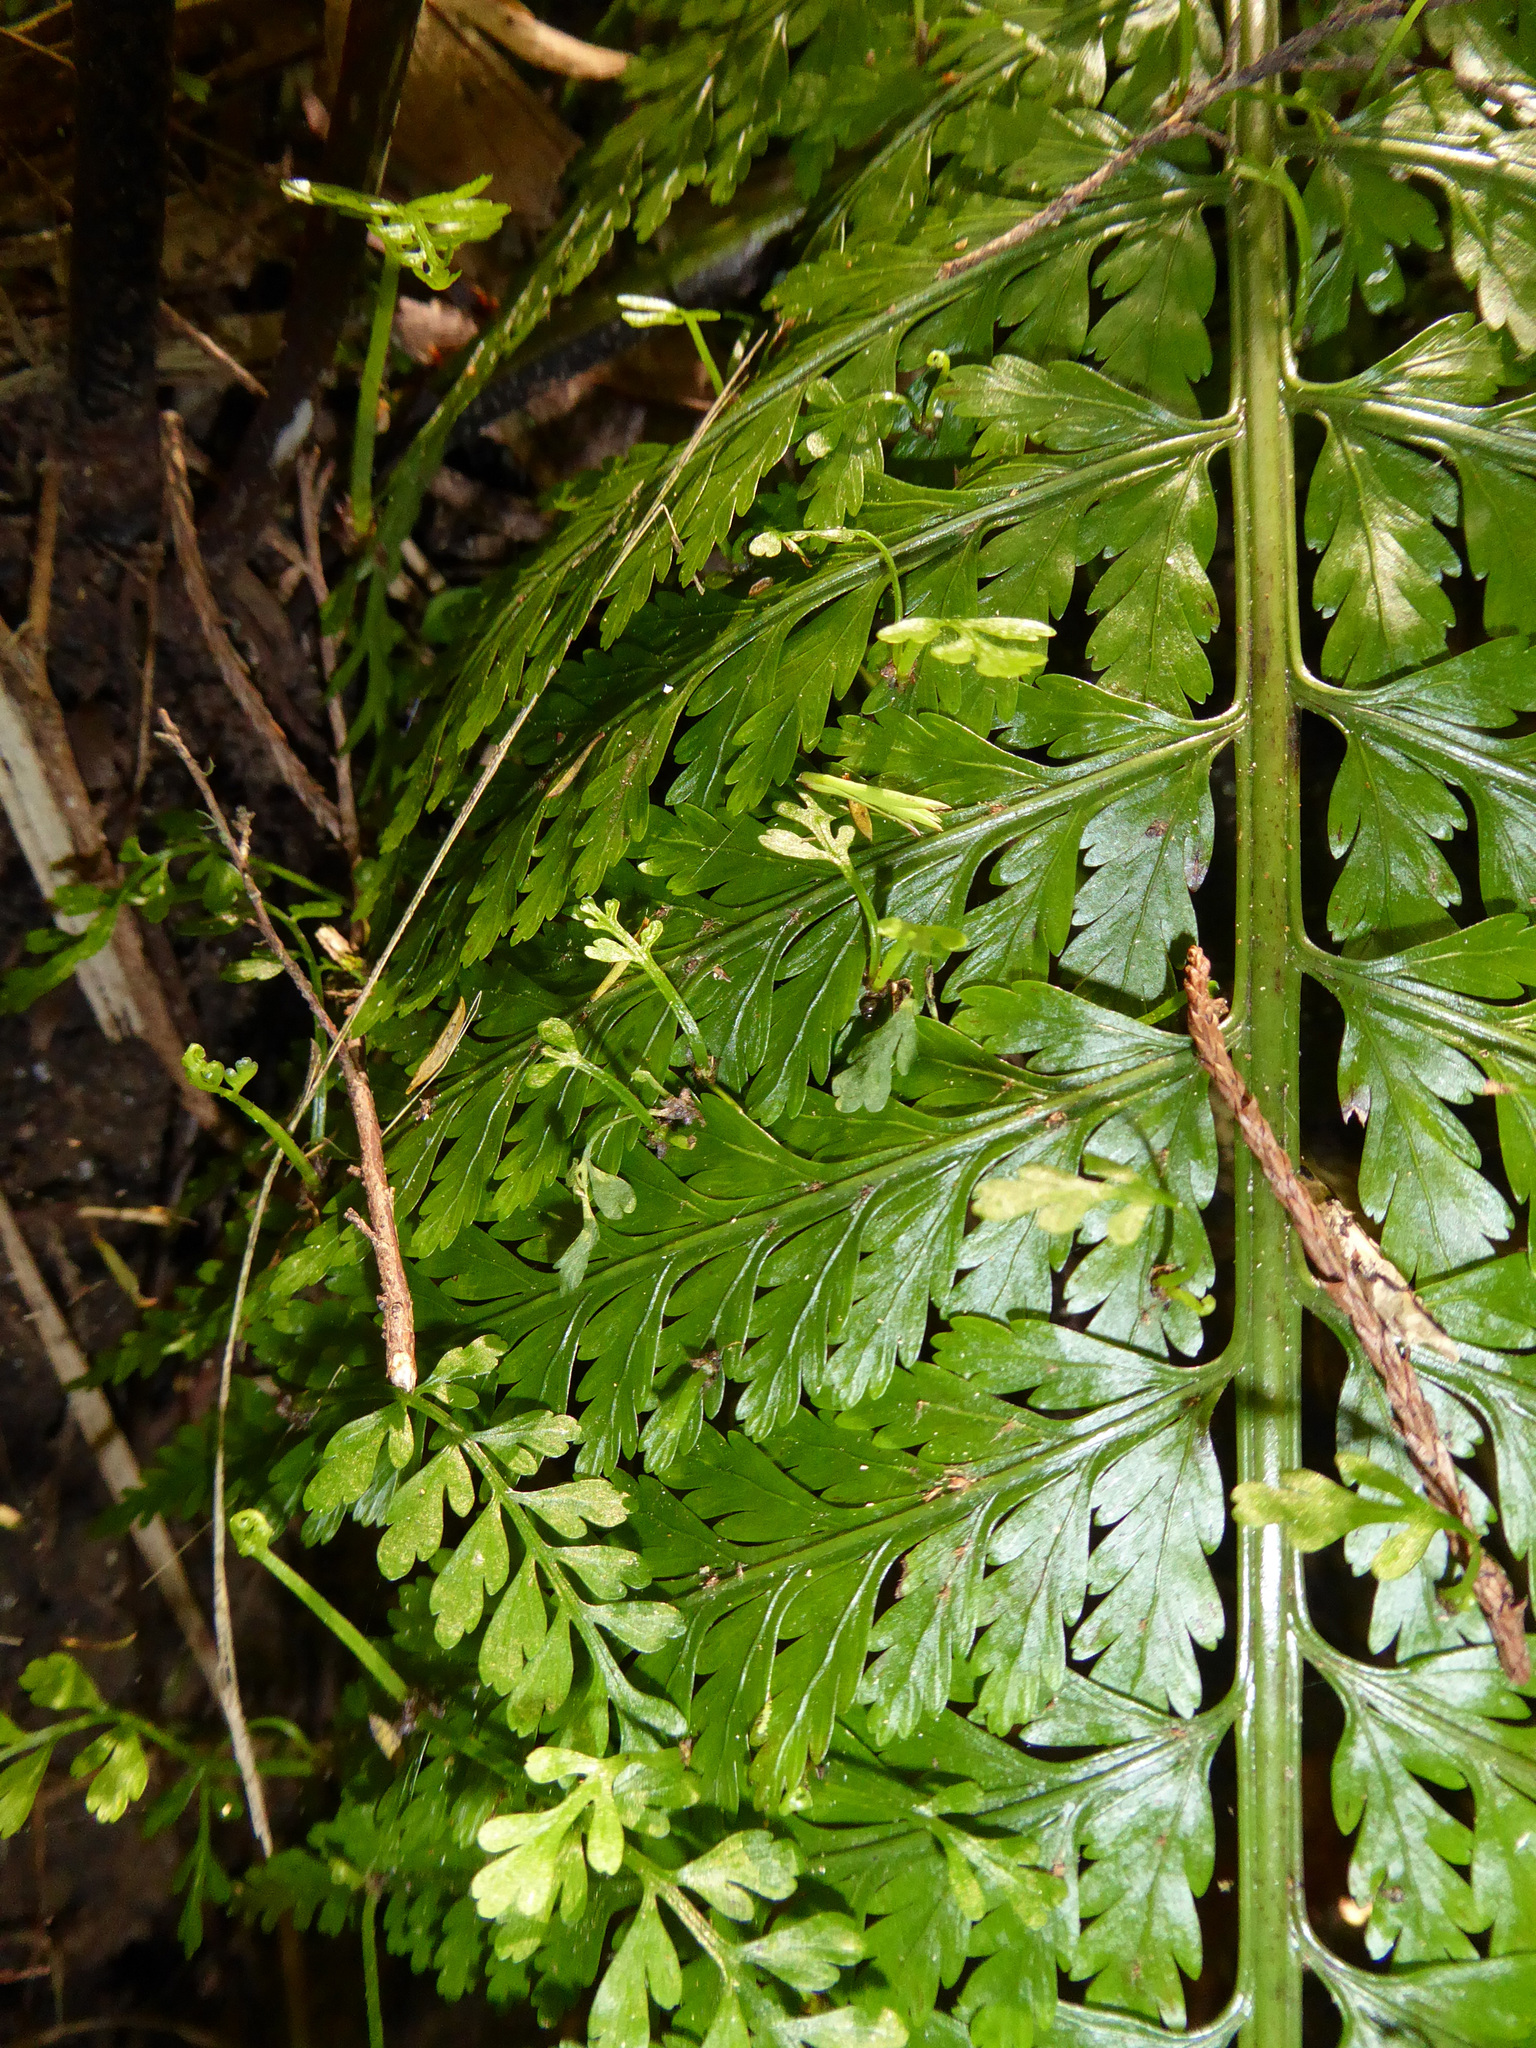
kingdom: Plantae
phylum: Tracheophyta
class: Polypodiopsida
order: Polypodiales
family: Aspleniaceae
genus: Asplenium
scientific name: Asplenium bulbiferum
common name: Mother fern
